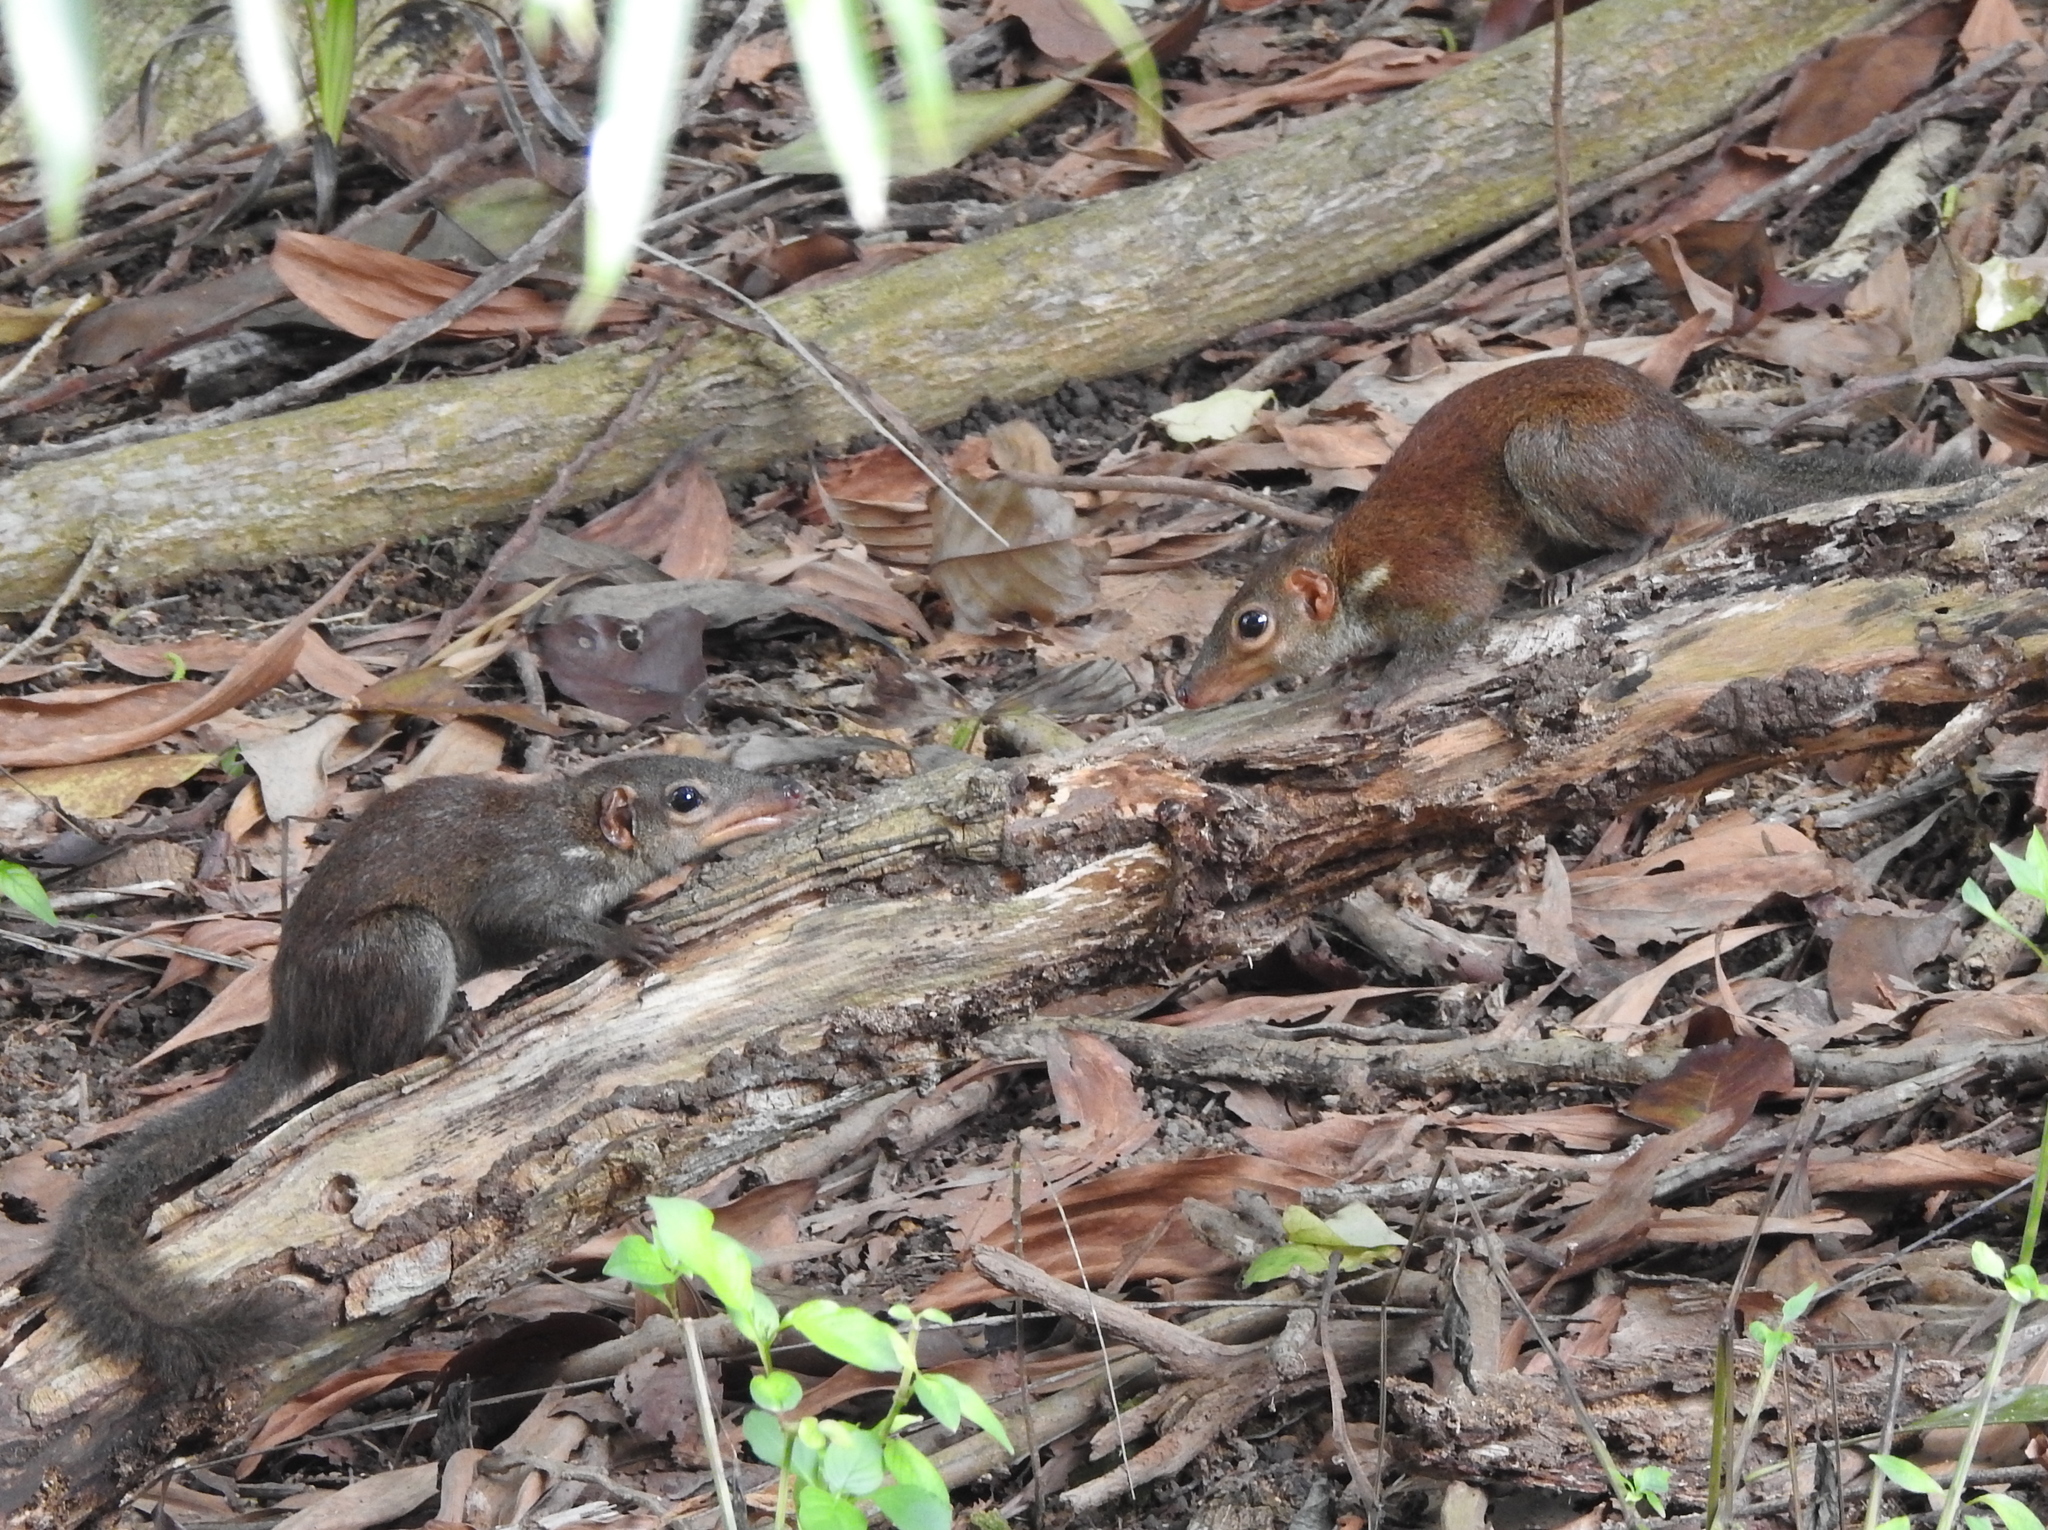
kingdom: Animalia
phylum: Chordata
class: Mammalia
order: Scandentia
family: Tupaiidae
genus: Tupaia
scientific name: Tupaia glis
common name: Common treeshrew
